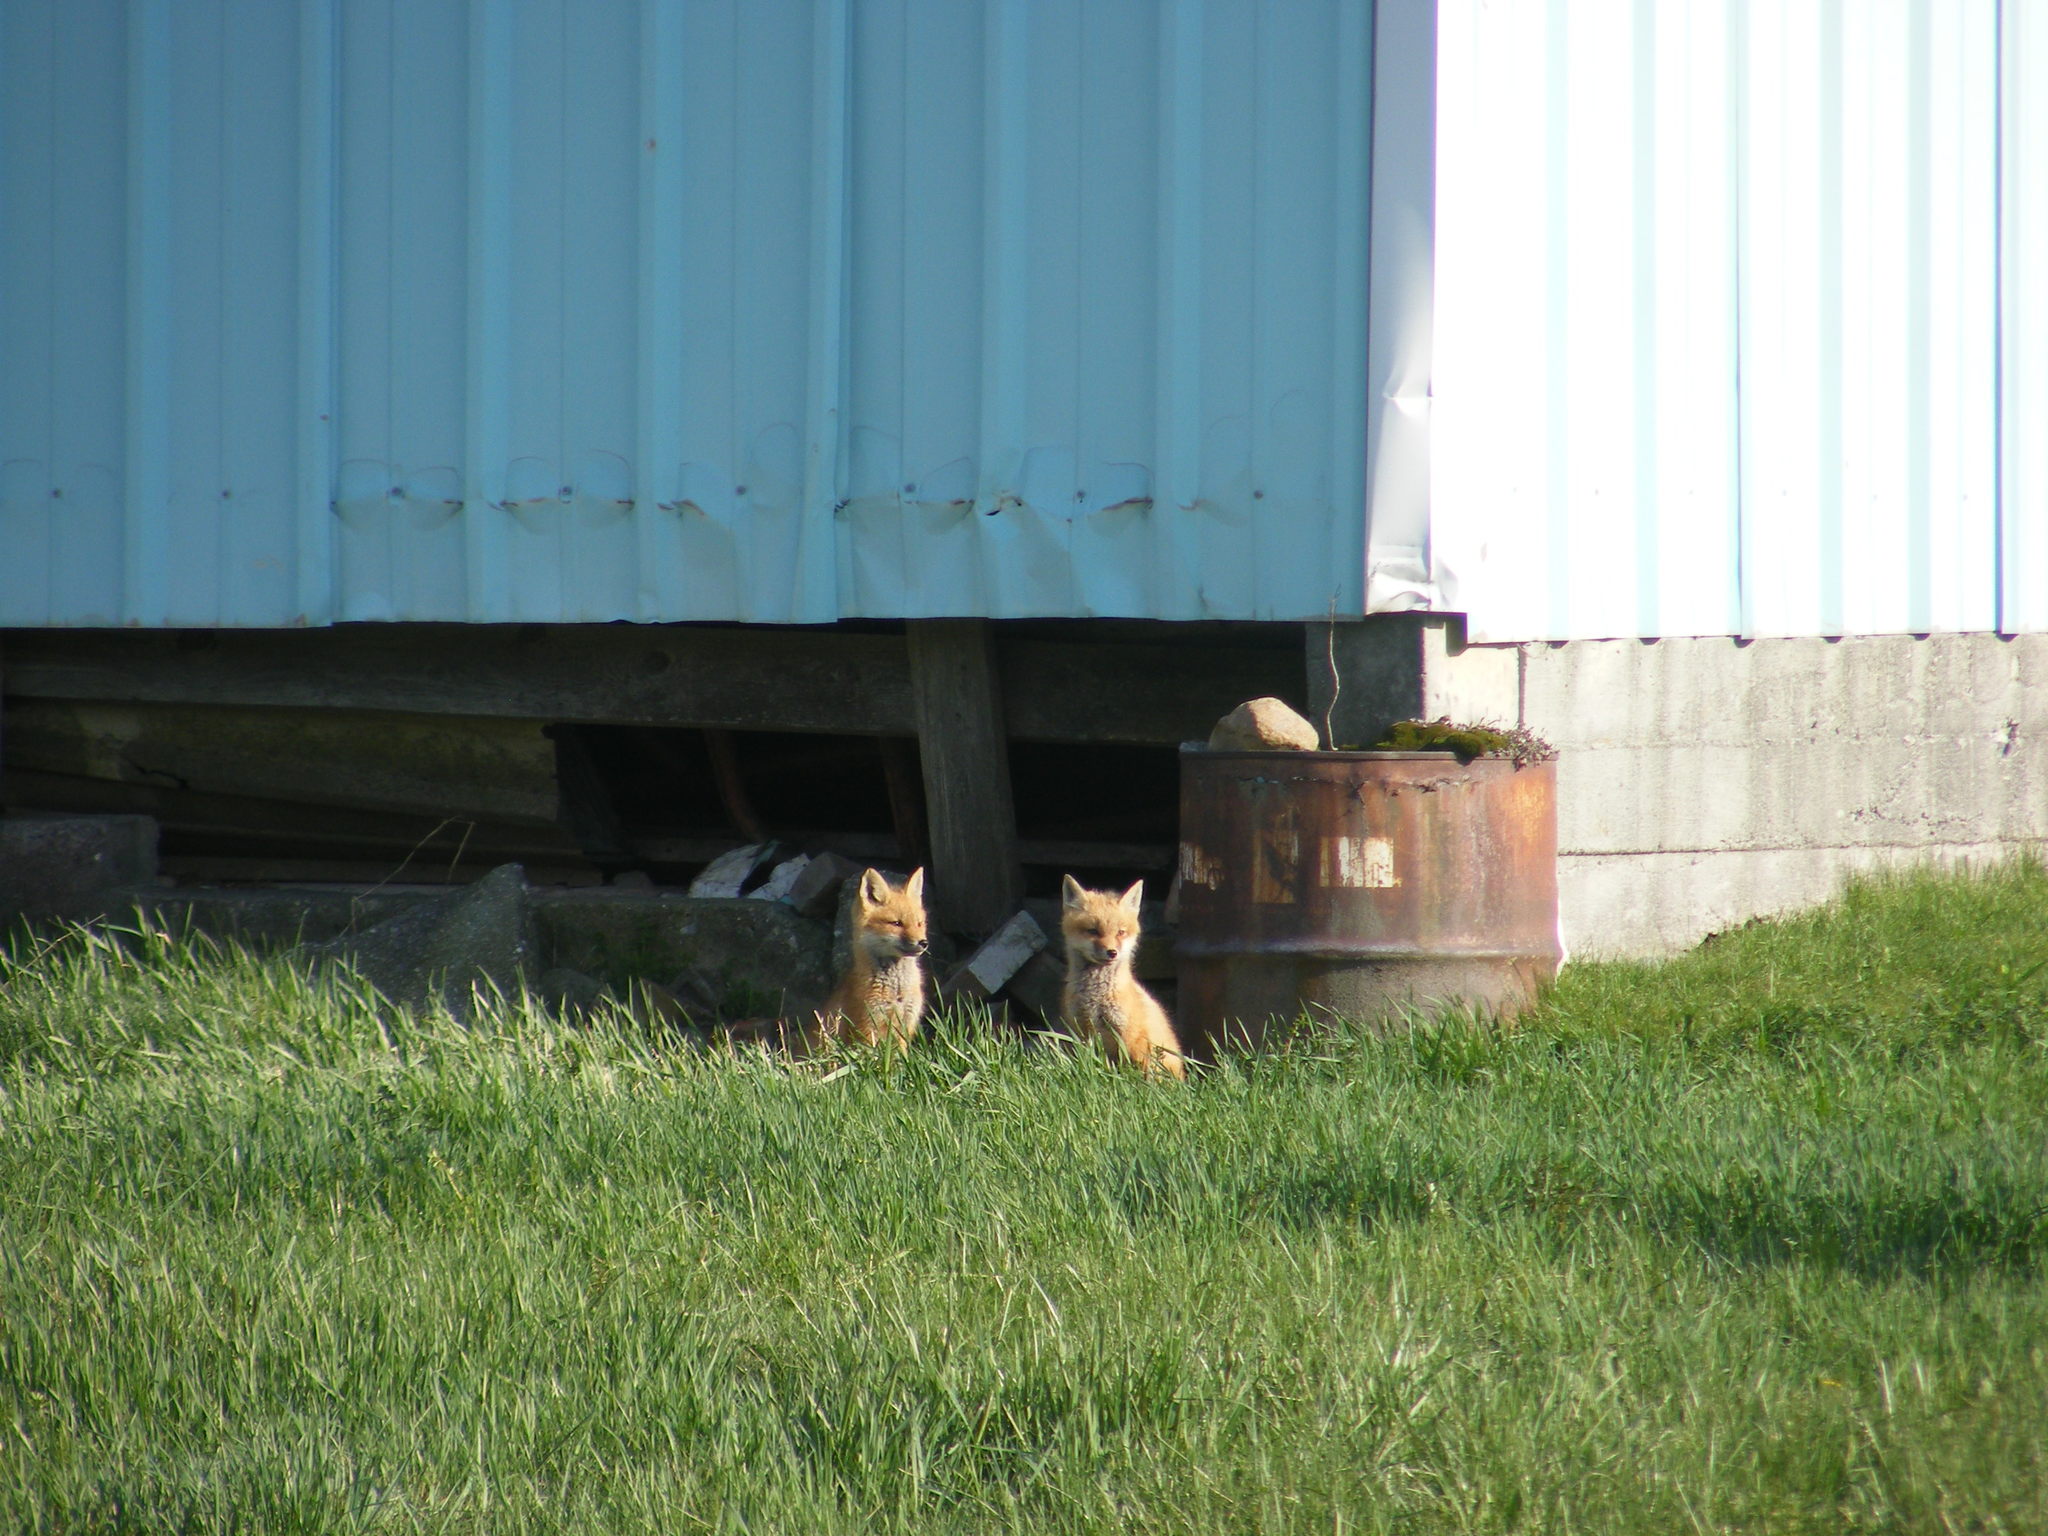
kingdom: Animalia
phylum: Chordata
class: Mammalia
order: Carnivora
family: Canidae
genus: Vulpes
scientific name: Vulpes vulpes
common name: Red fox
